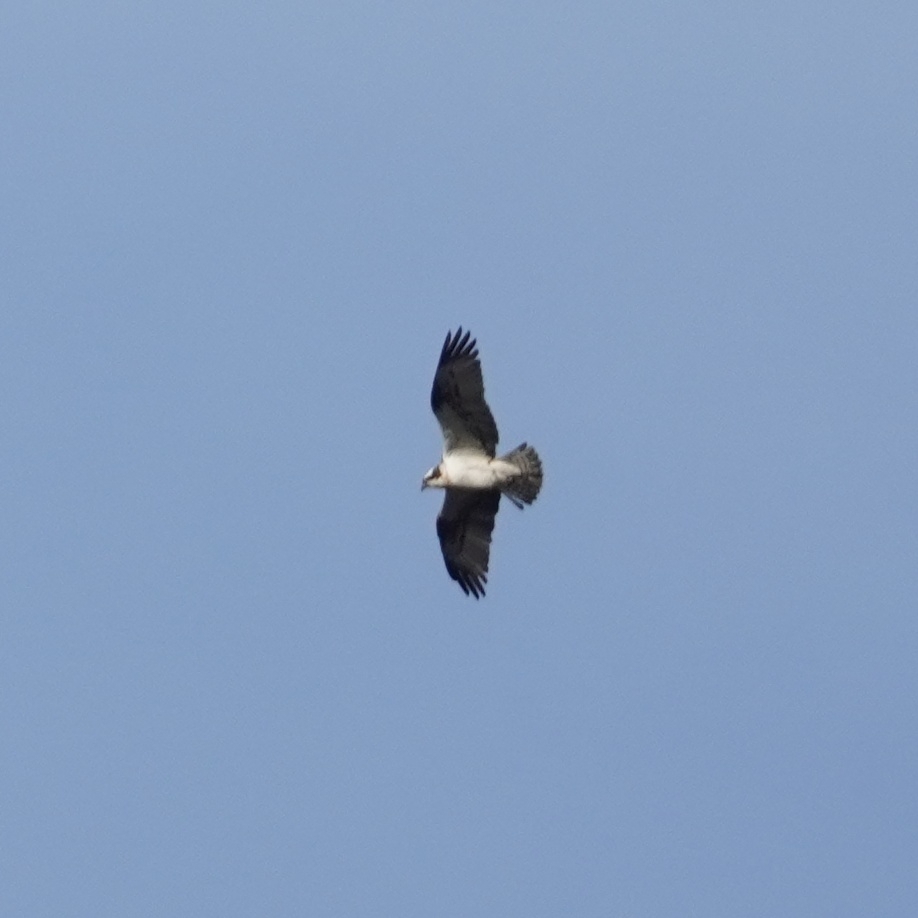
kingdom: Animalia
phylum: Chordata
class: Aves
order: Accipitriformes
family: Pandionidae
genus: Pandion
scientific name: Pandion haliaetus
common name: Osprey
